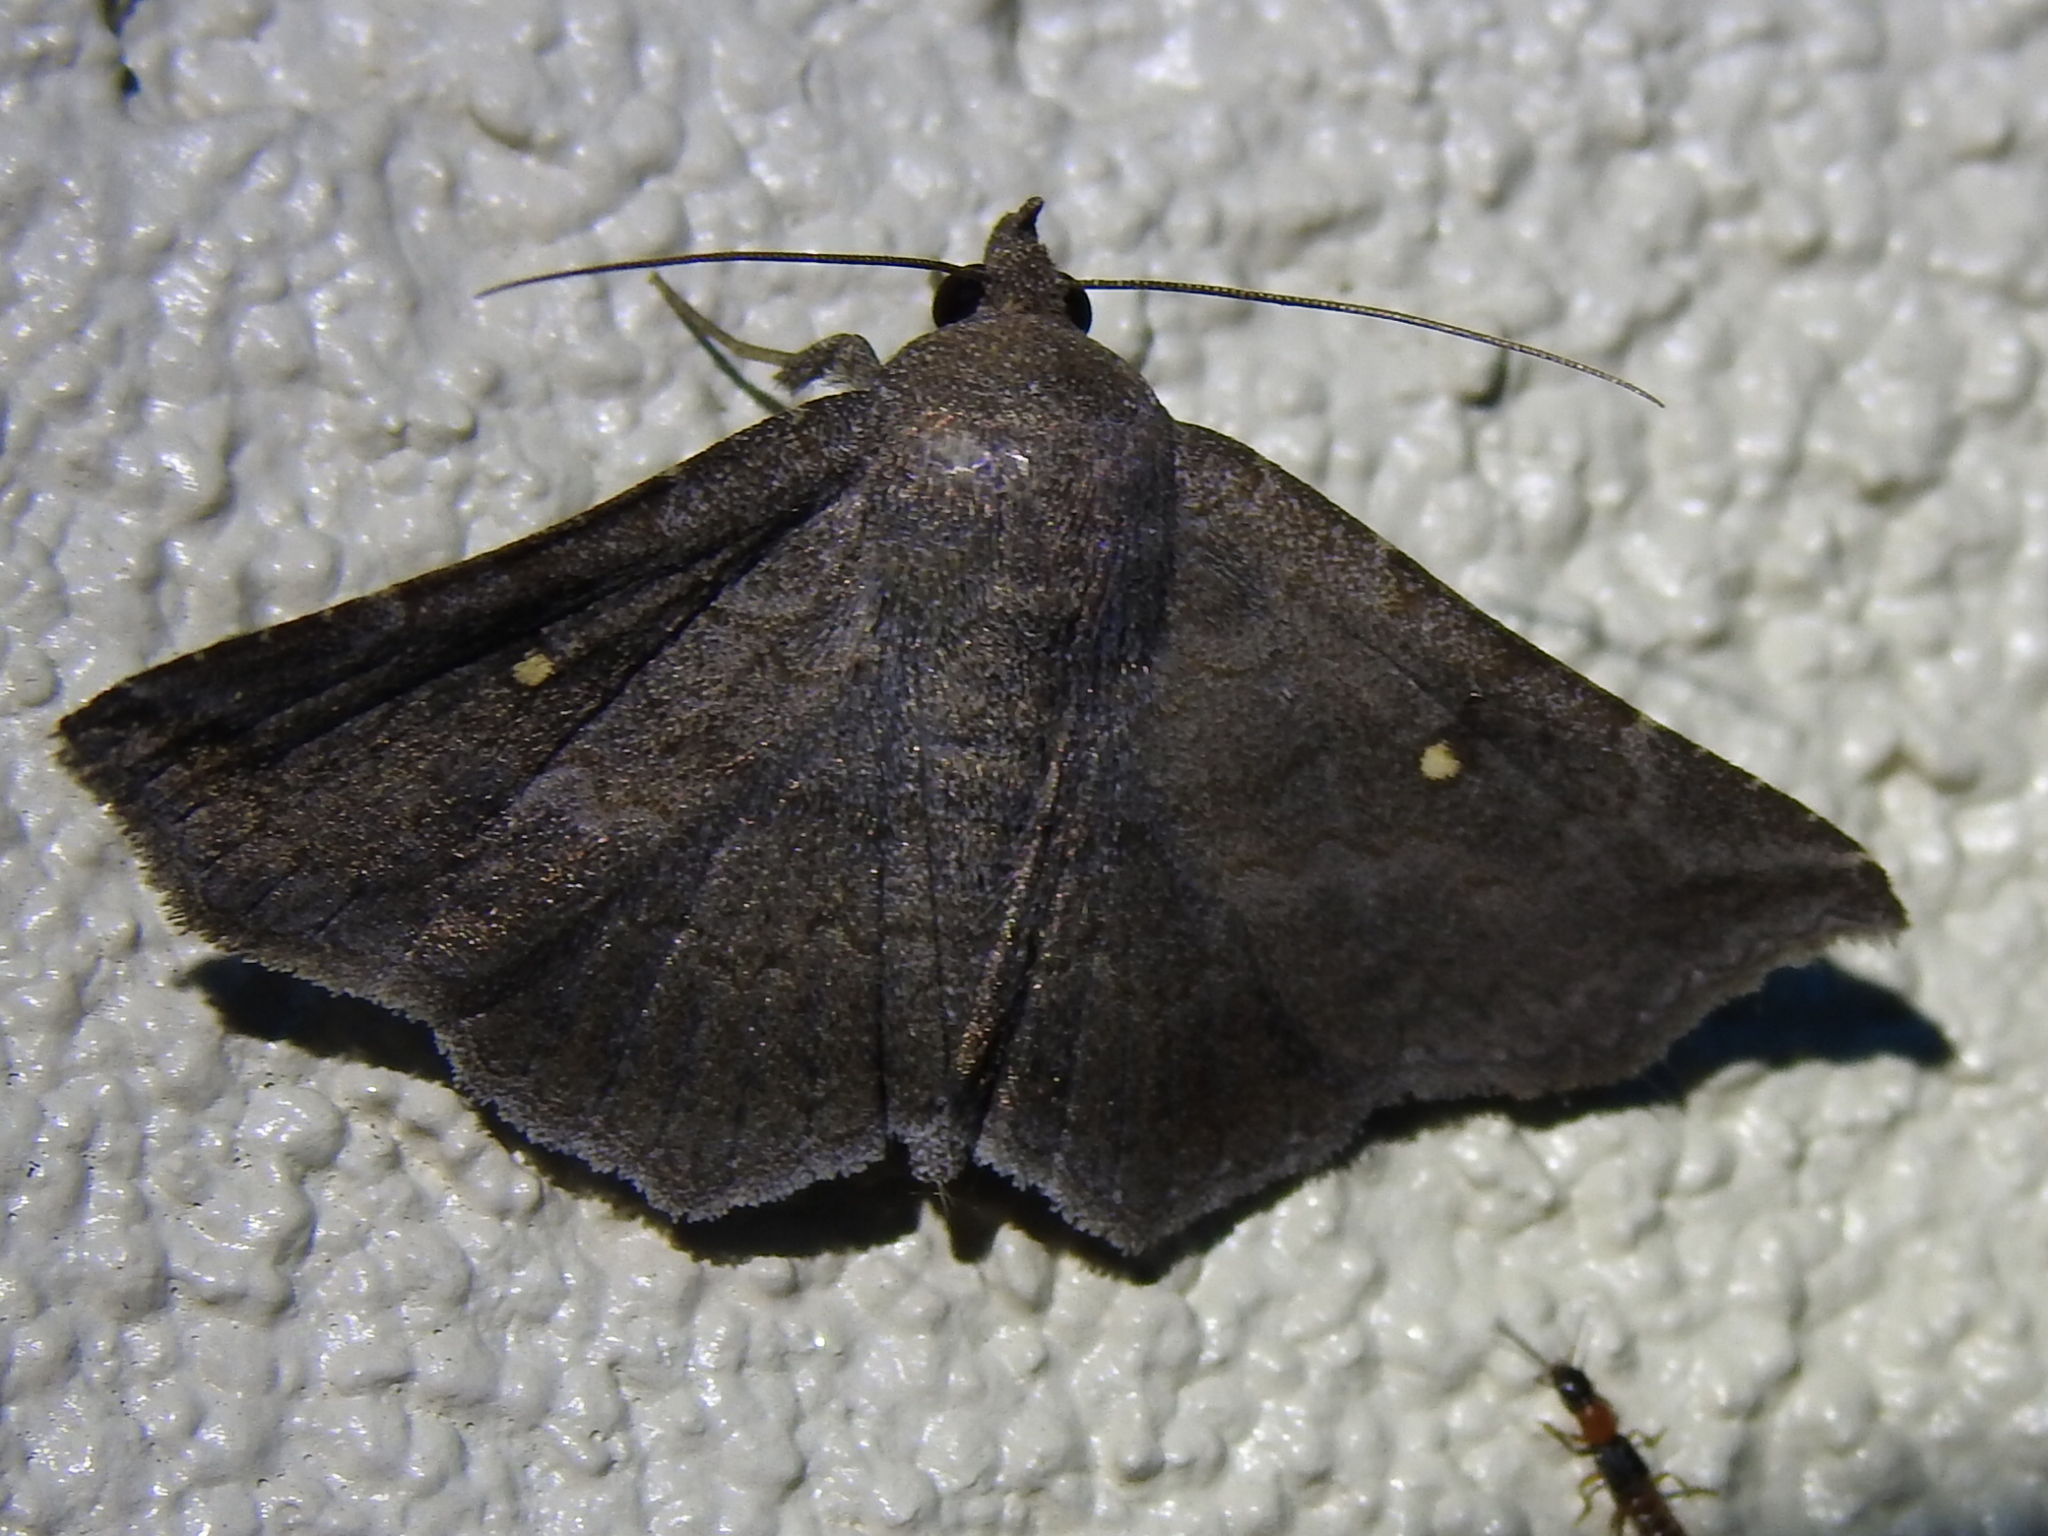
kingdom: Animalia
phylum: Arthropoda
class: Insecta
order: Lepidoptera
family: Erebidae
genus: Lesmone
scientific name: Lesmone hinna
